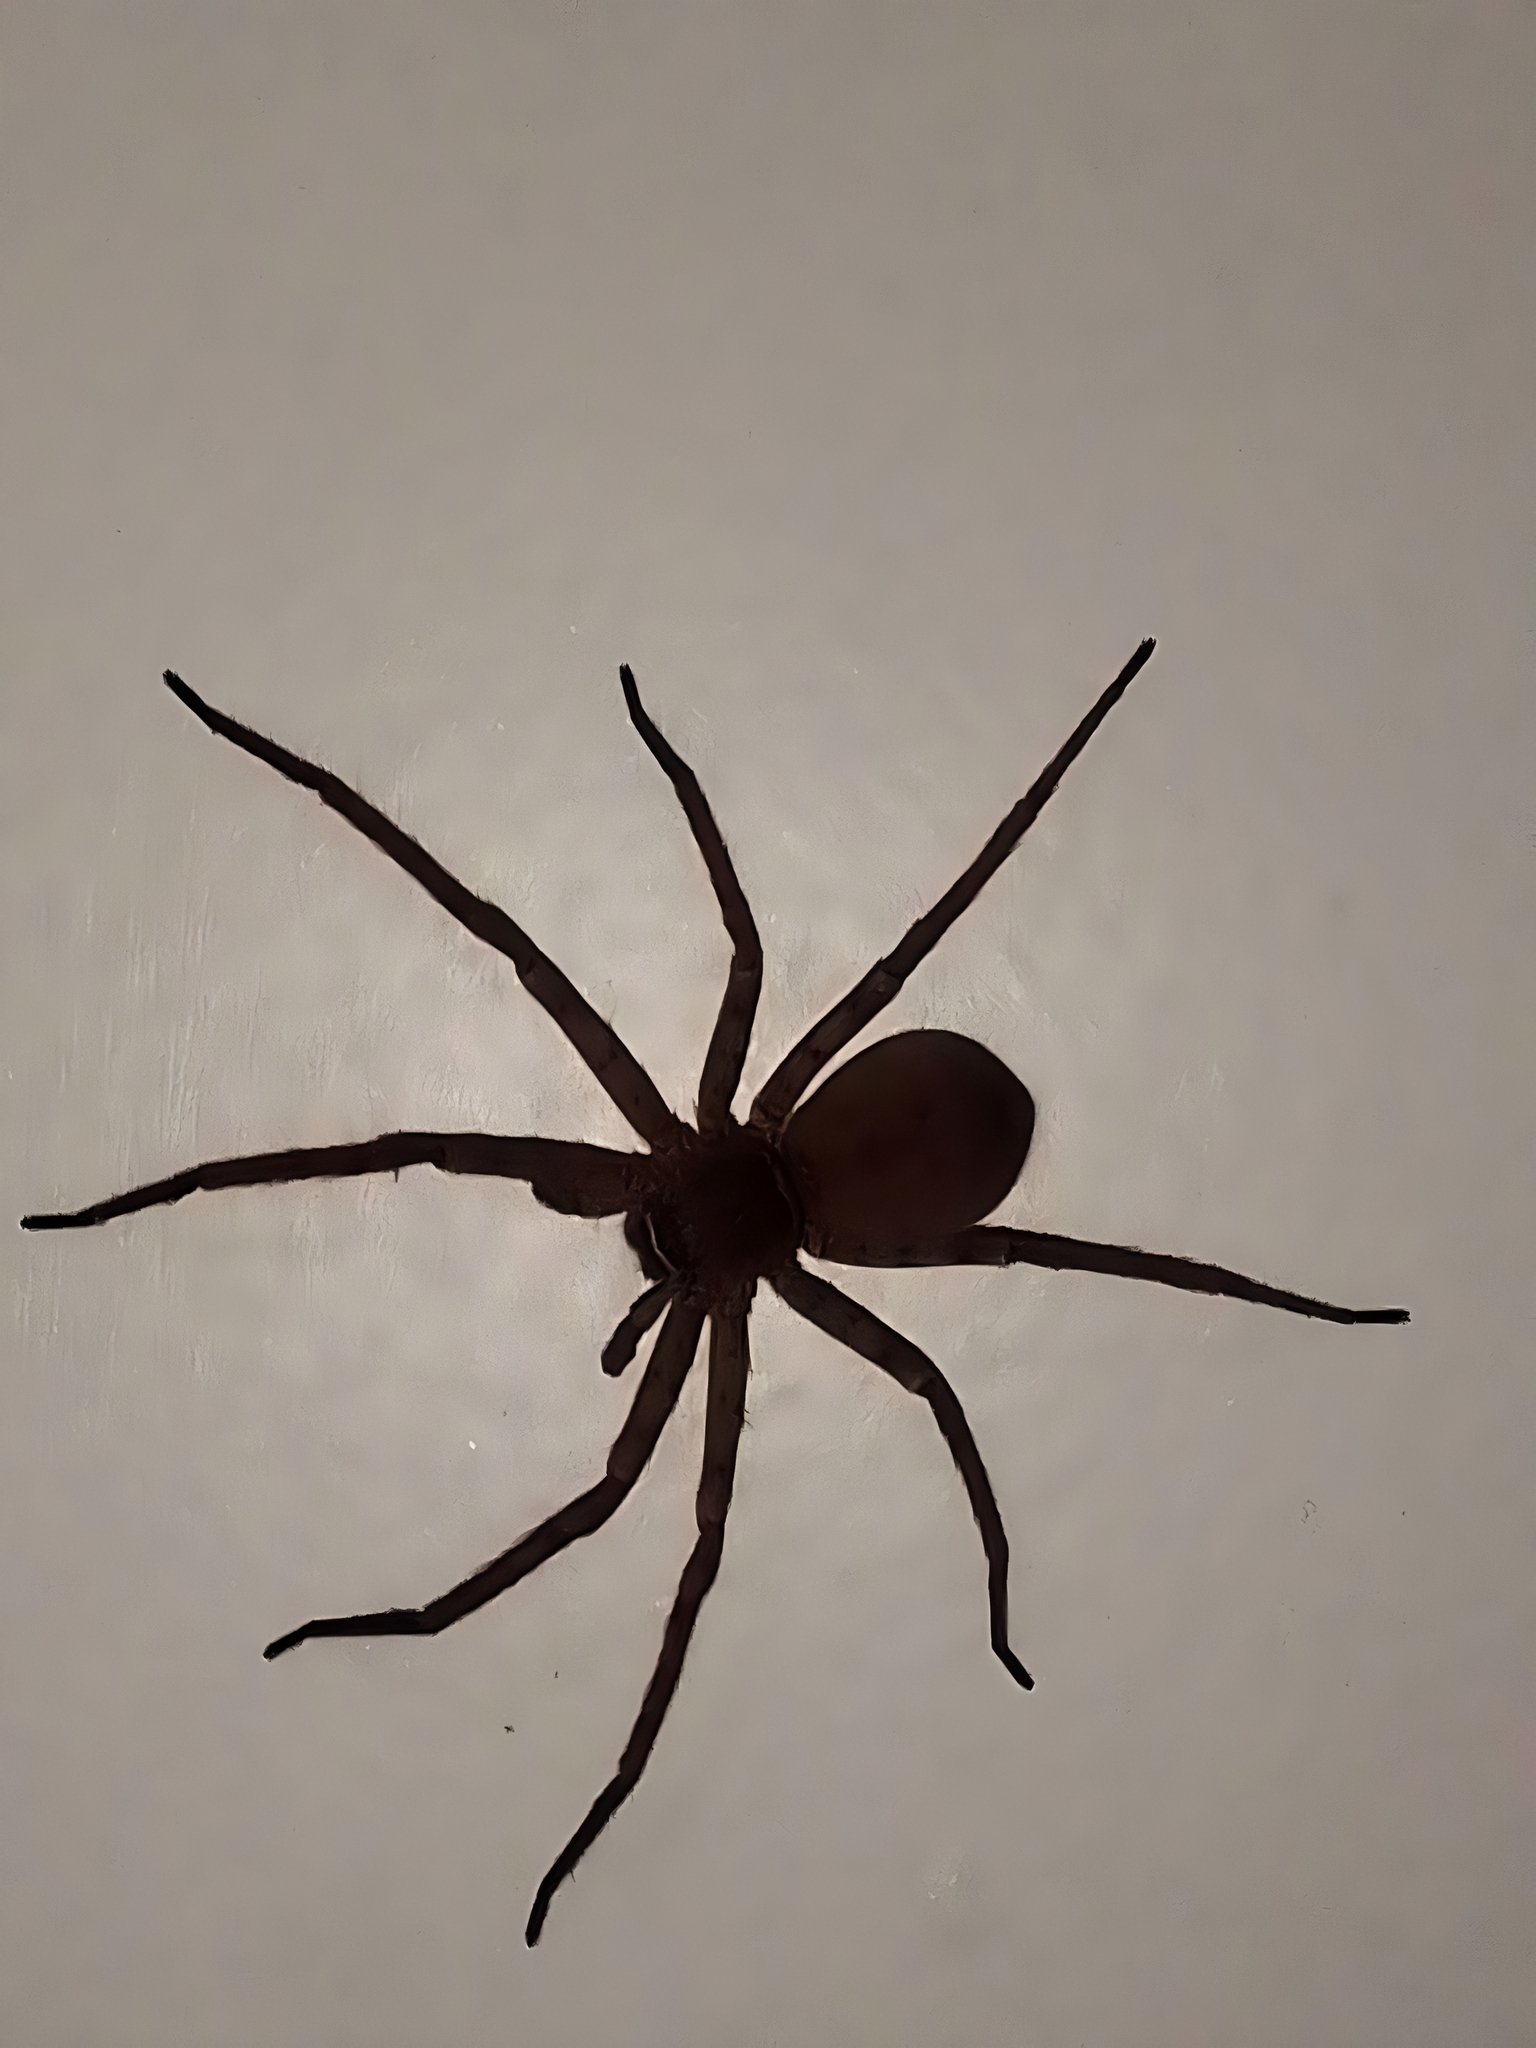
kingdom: Animalia
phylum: Arthropoda
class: Arachnida
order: Araneae
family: Sparassidae
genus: Heteropoda
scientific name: Heteropoda venatoria
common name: Huntsman spider
